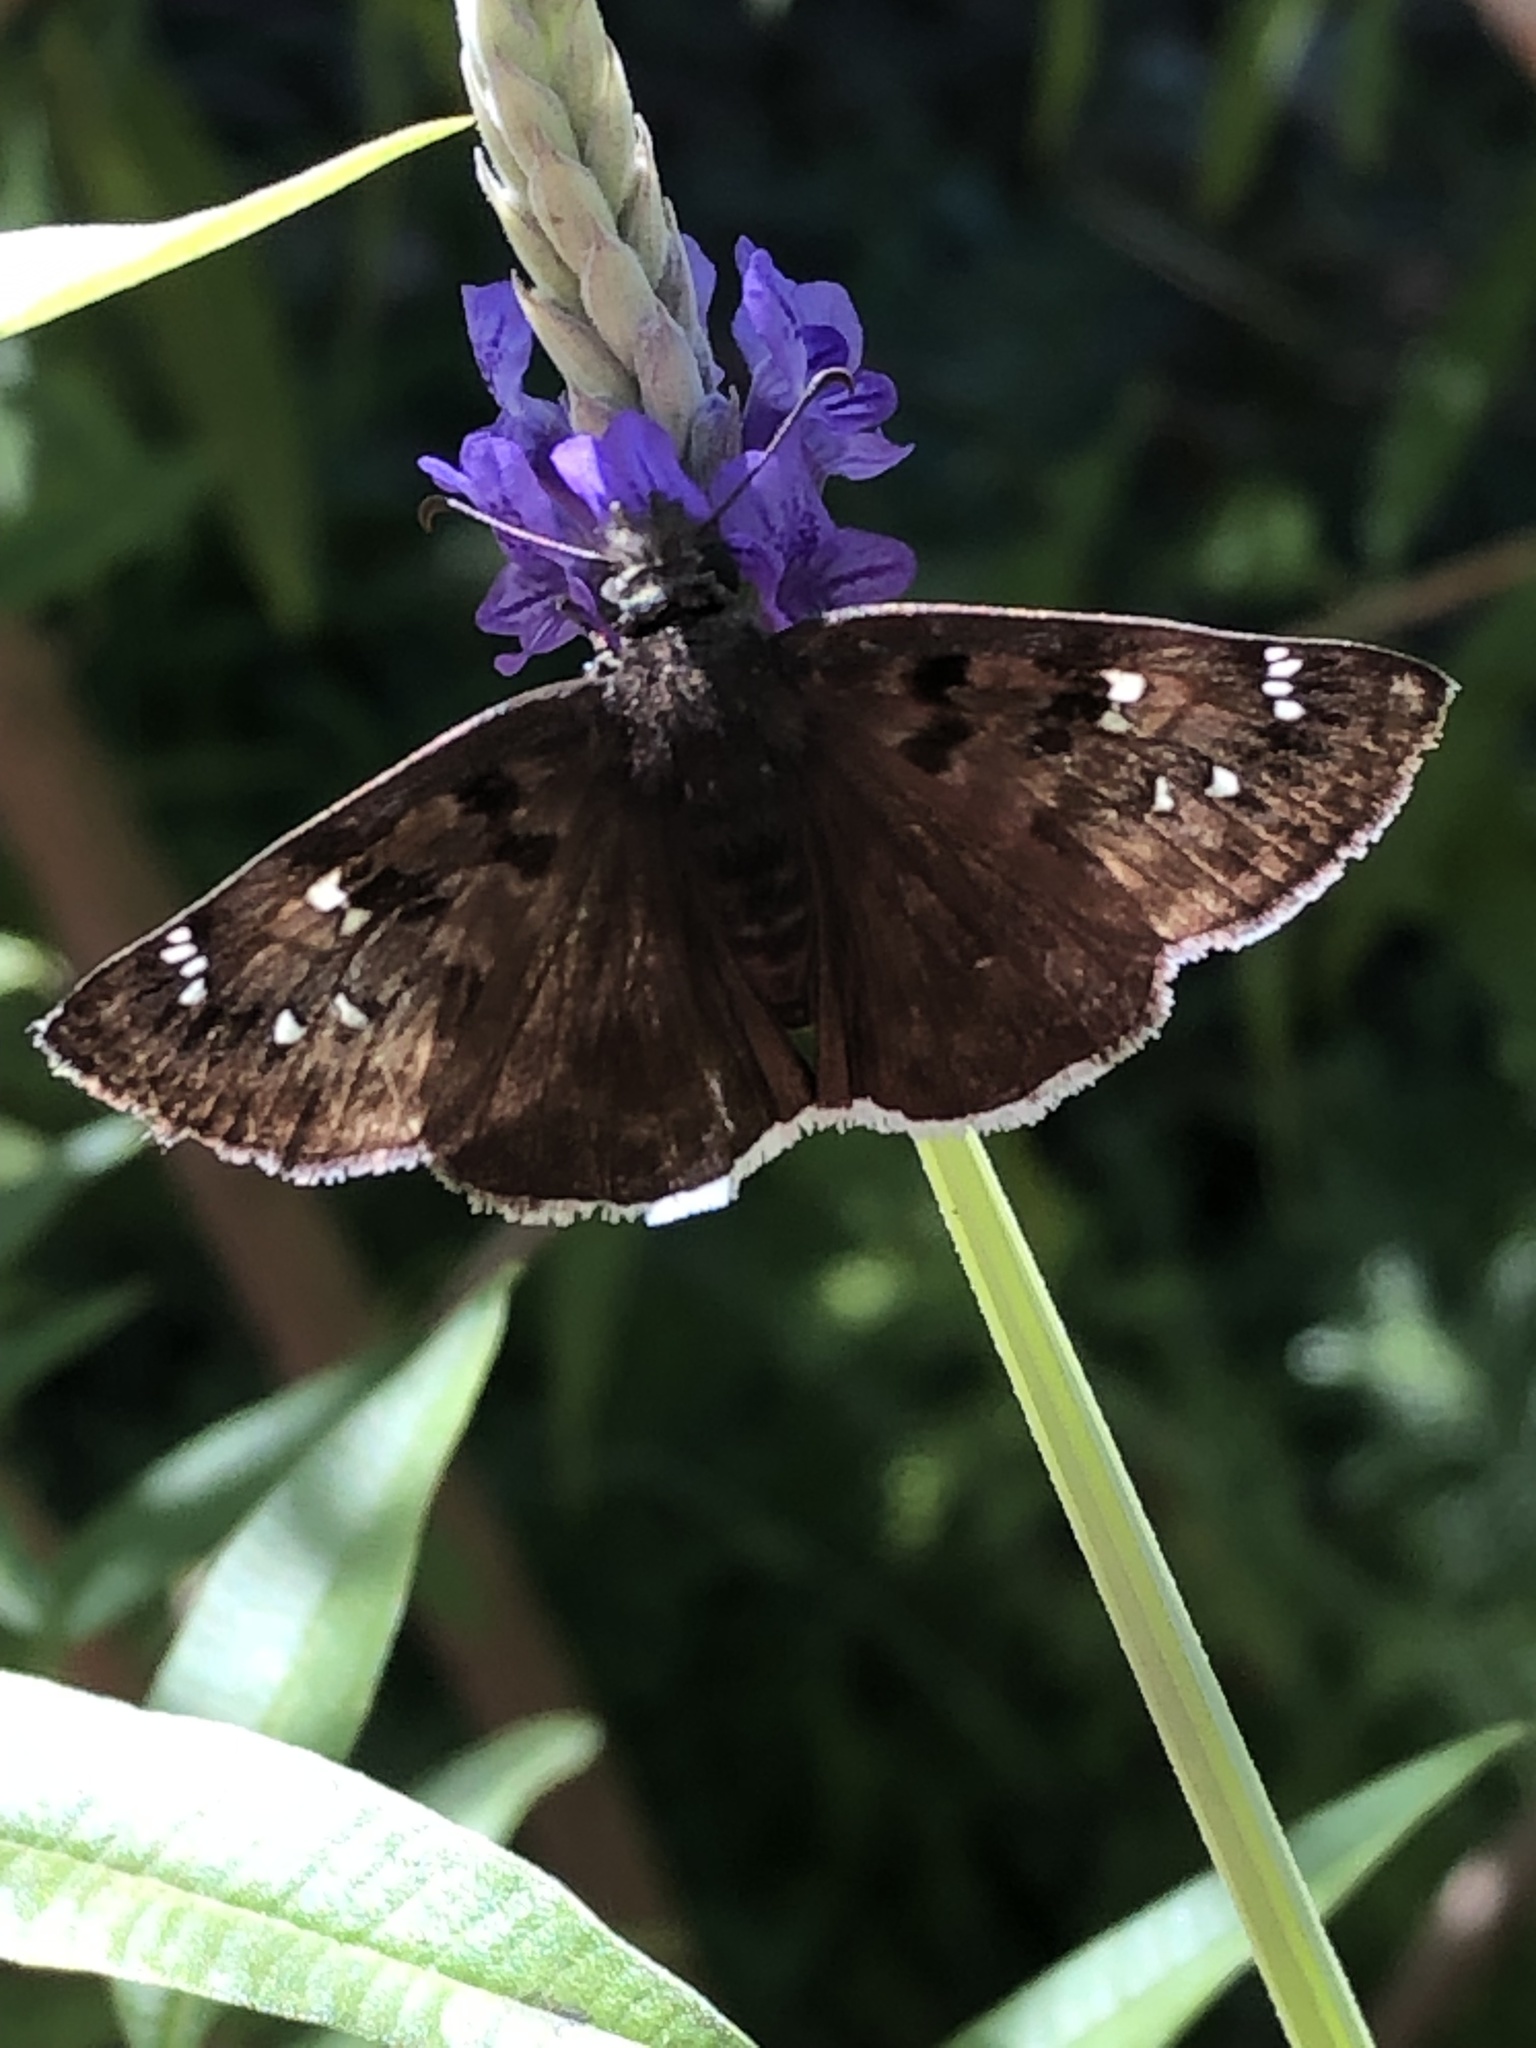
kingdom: Animalia
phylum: Arthropoda
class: Insecta
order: Lepidoptera
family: Hesperiidae
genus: Erynnis
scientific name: Erynnis tristis
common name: Mournful duskywing
